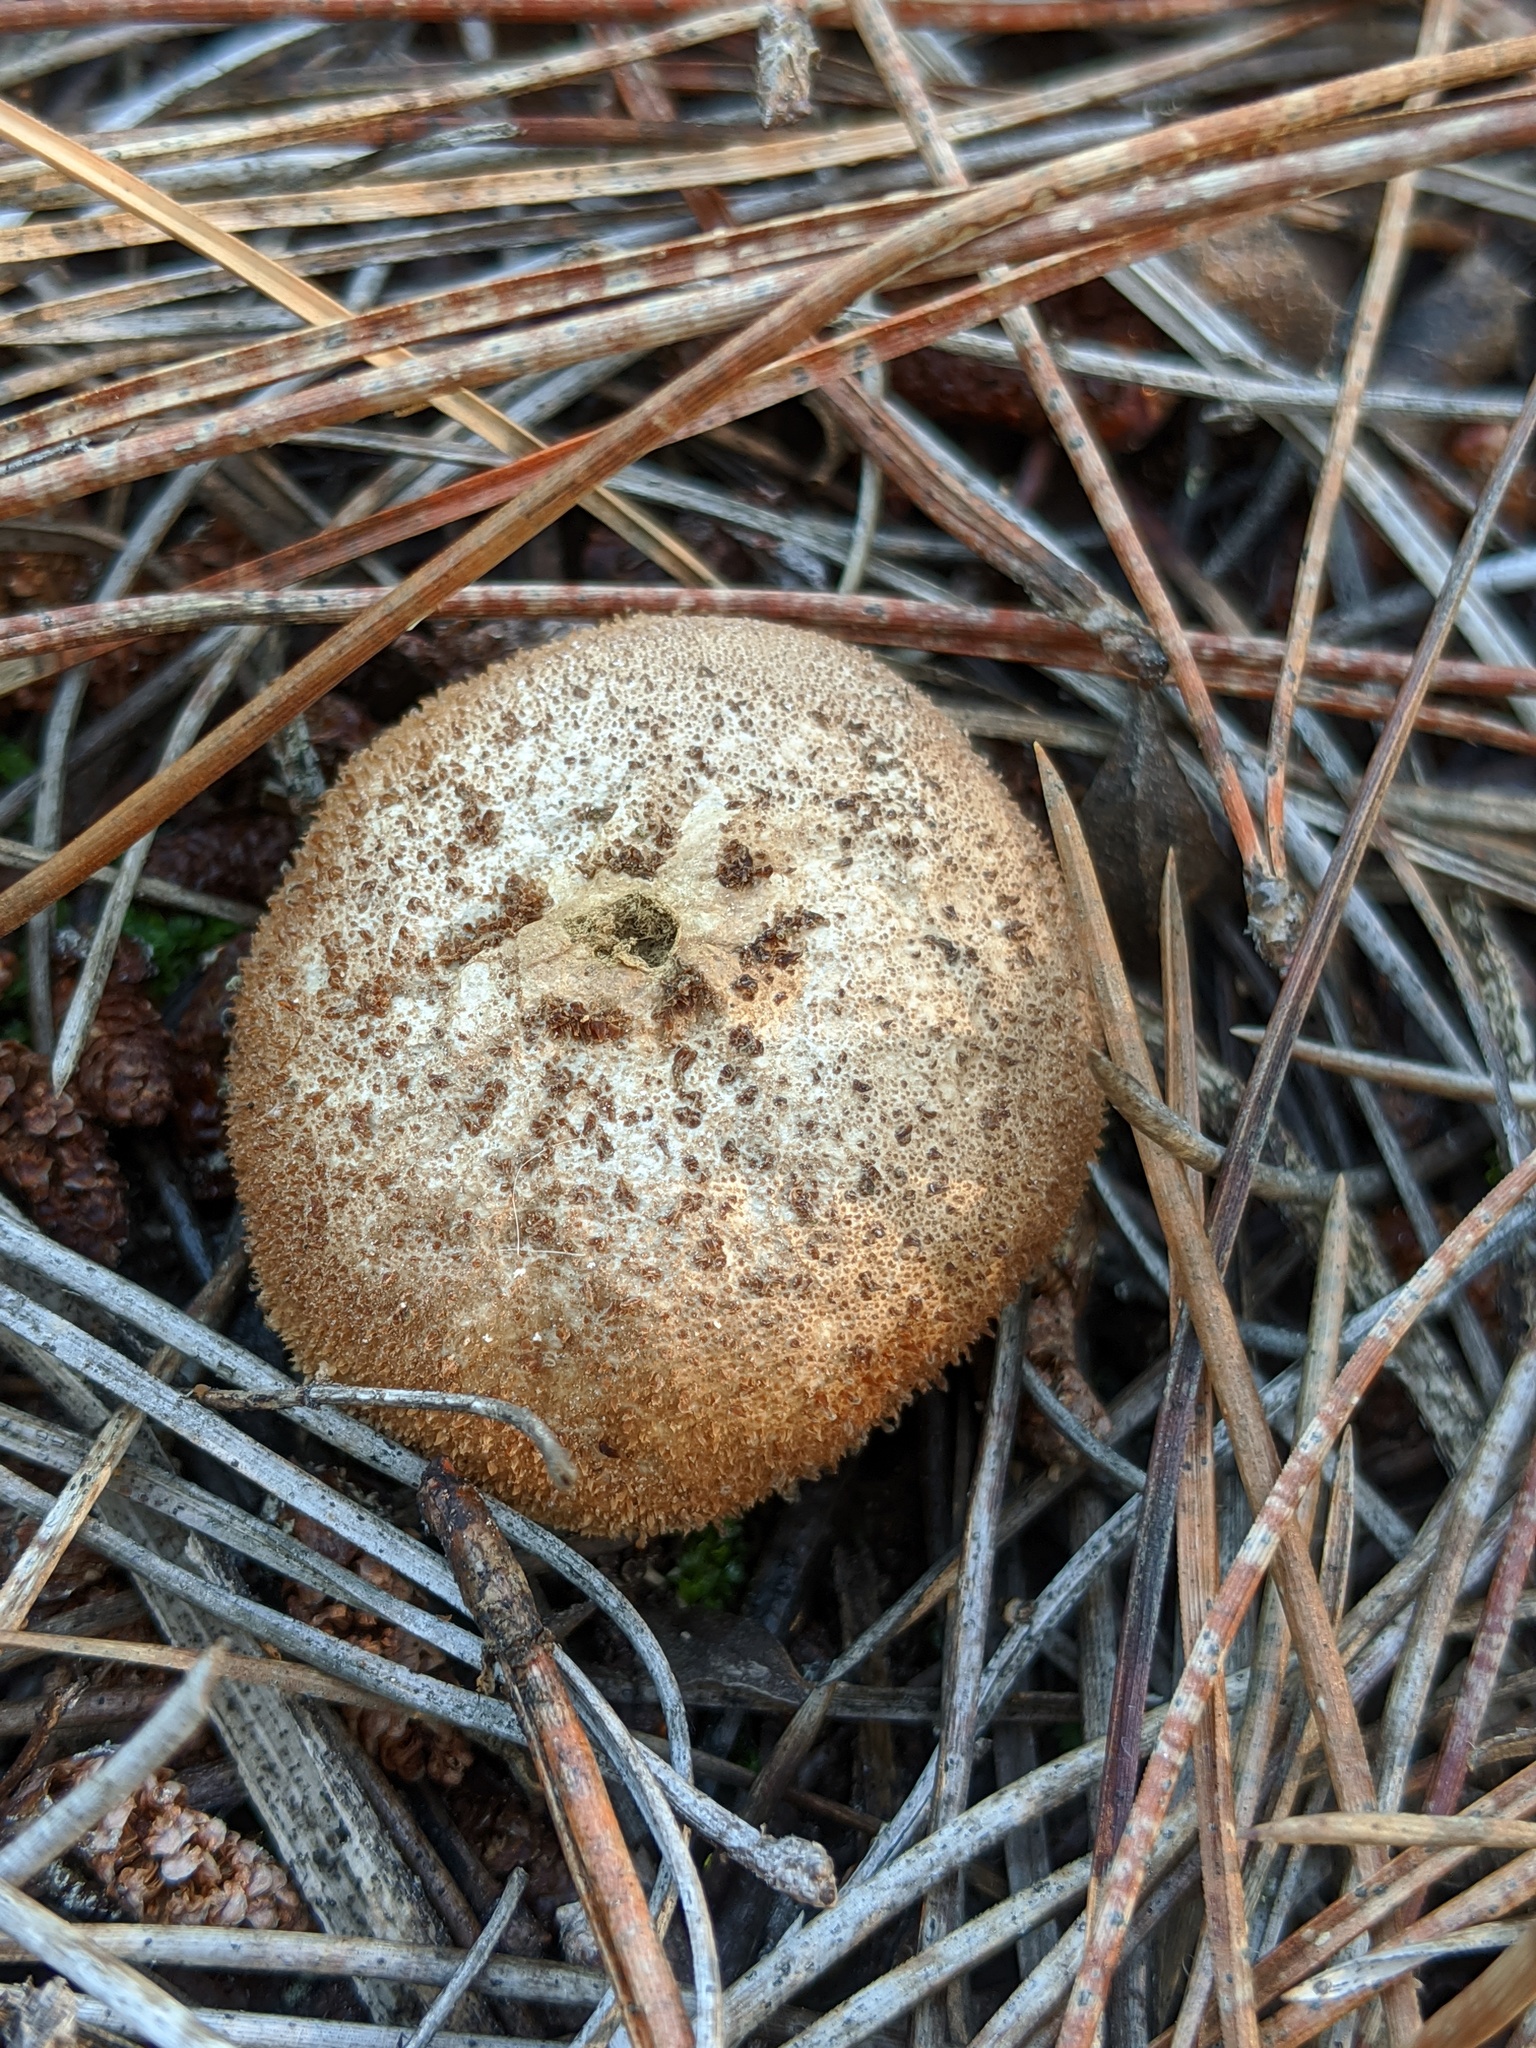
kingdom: Fungi
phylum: Basidiomycota
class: Agaricomycetes
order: Agaricales
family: Lycoperdaceae
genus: Lycoperdon
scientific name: Lycoperdon perlatum
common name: Common puffball
